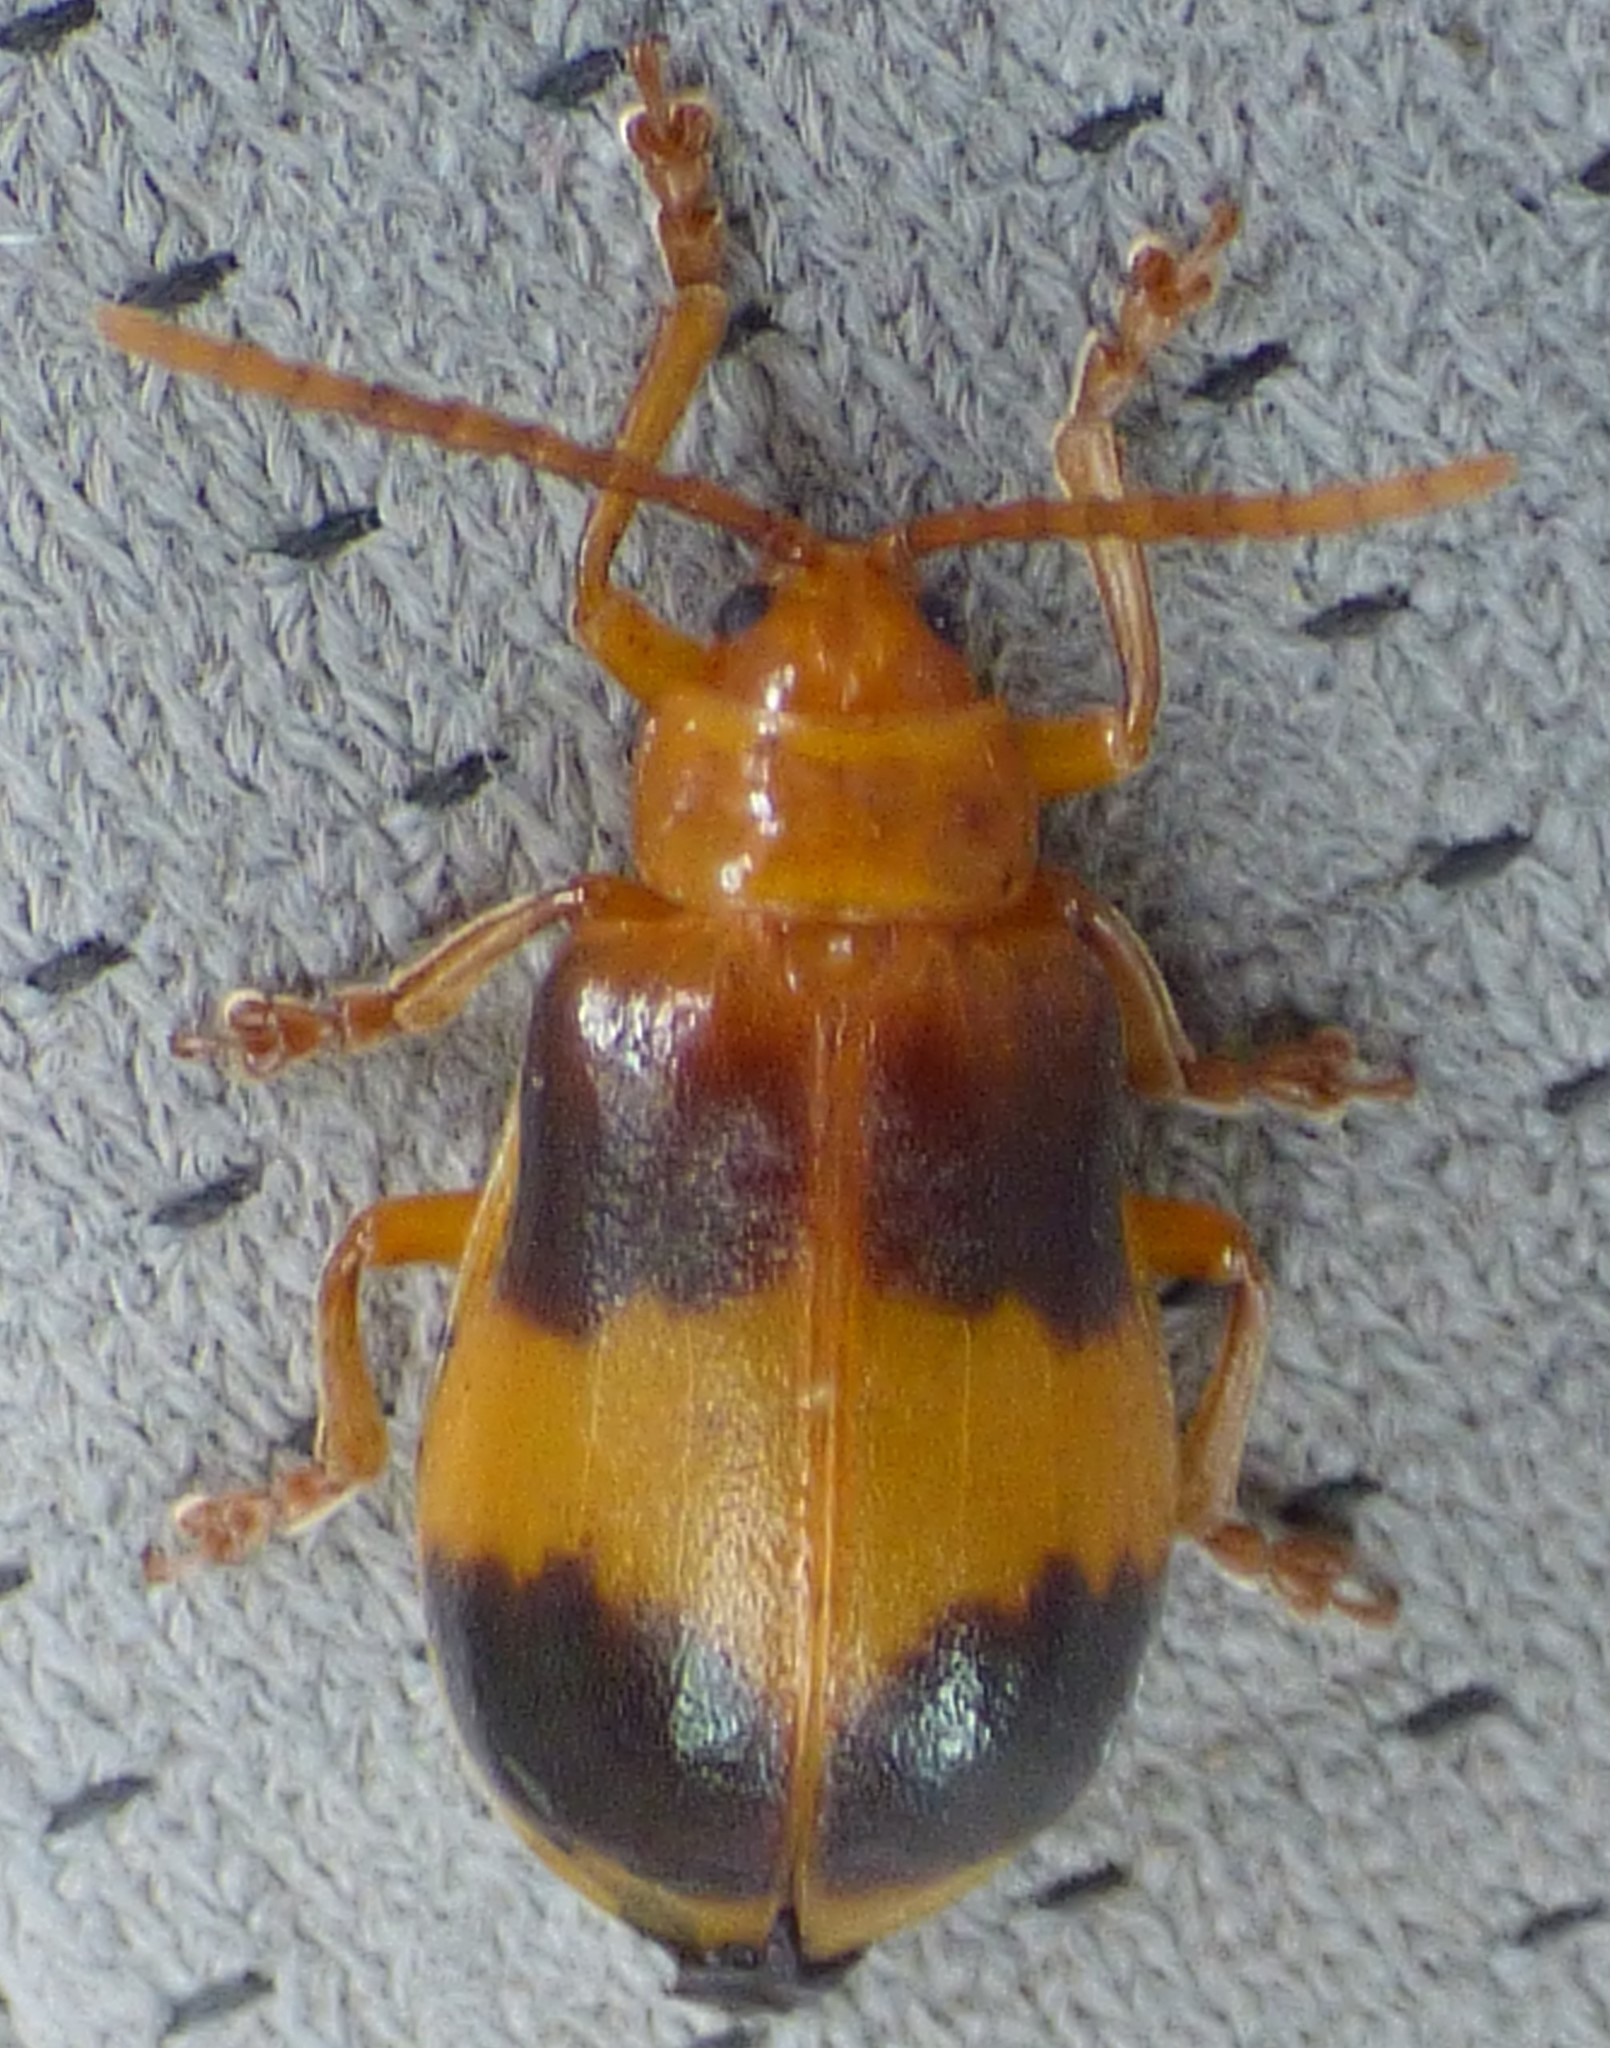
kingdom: Animalia
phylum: Arthropoda
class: Insecta
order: Coleoptera
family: Chrysomelidae
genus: Monocesta
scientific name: Monocesta coryli
